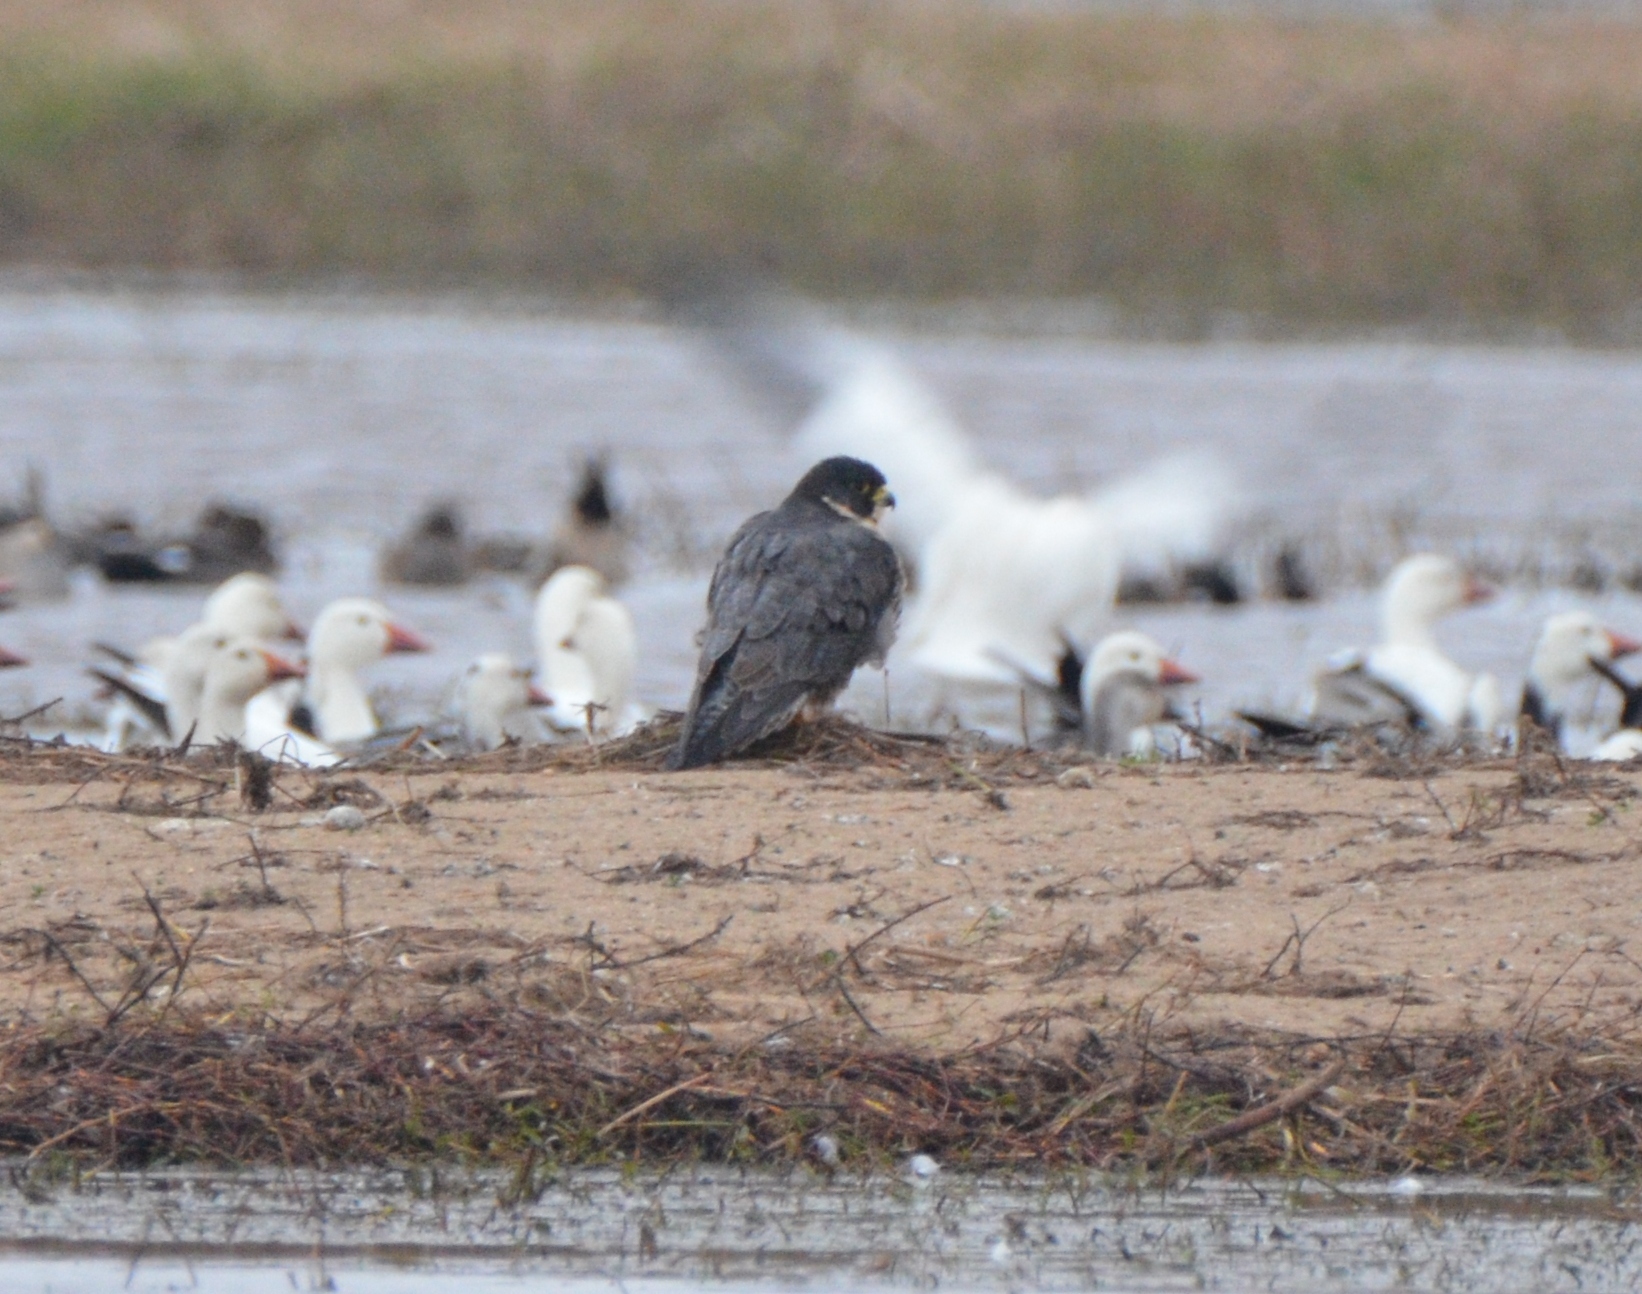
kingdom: Animalia
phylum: Chordata
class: Aves
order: Falconiformes
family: Falconidae
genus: Falco
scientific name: Falco peregrinus
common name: Peregrine falcon
